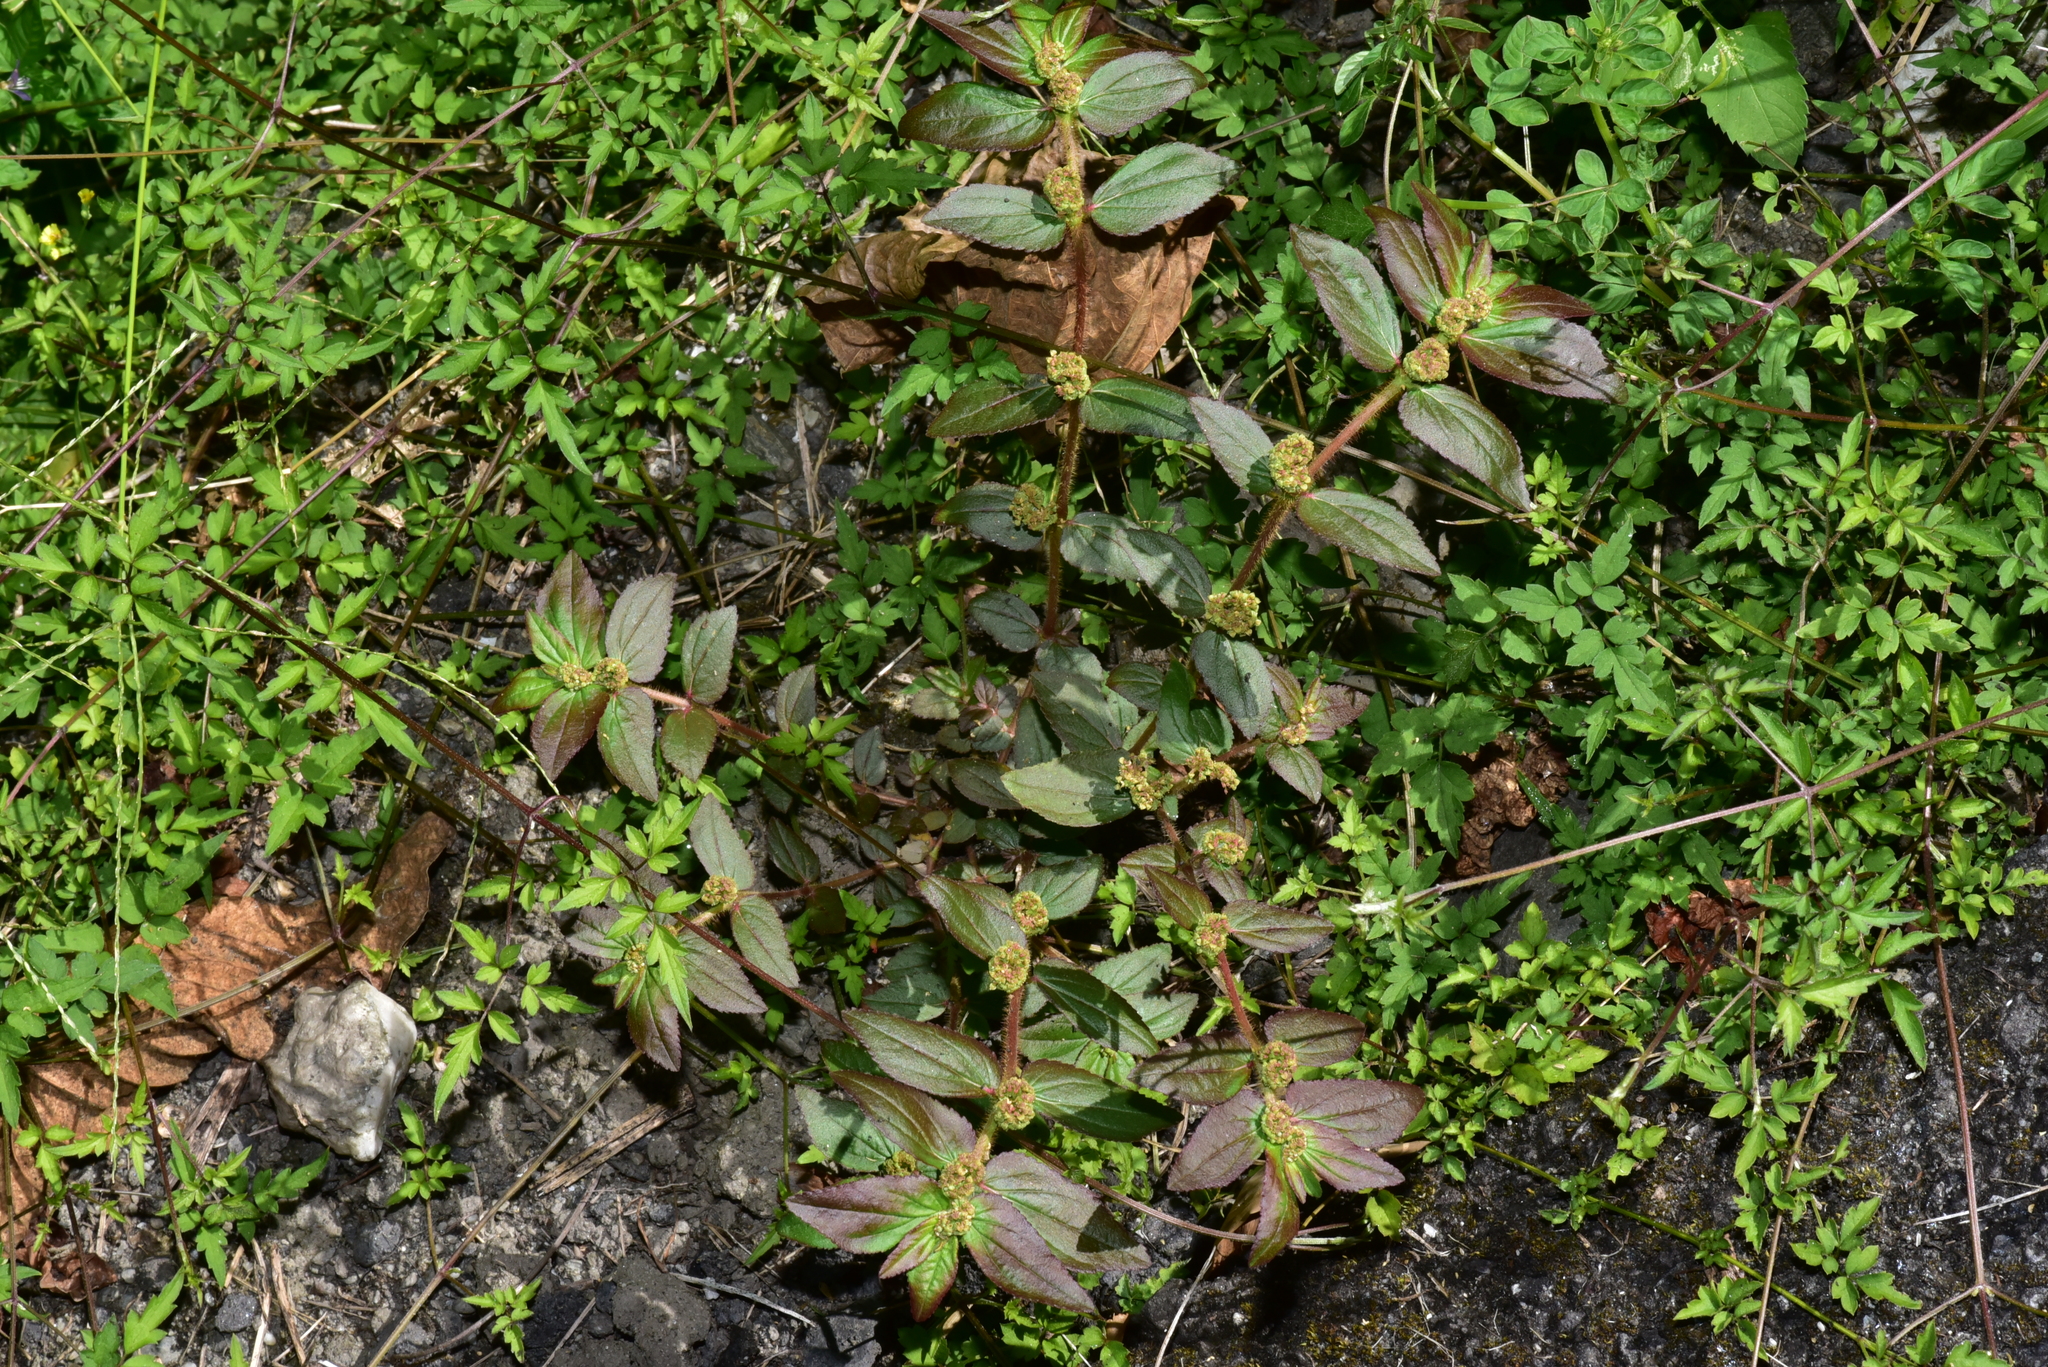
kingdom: Plantae
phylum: Tracheophyta
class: Magnoliopsida
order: Malpighiales
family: Euphorbiaceae
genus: Euphorbia
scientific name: Euphorbia hirta
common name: Pillpod sandmat
